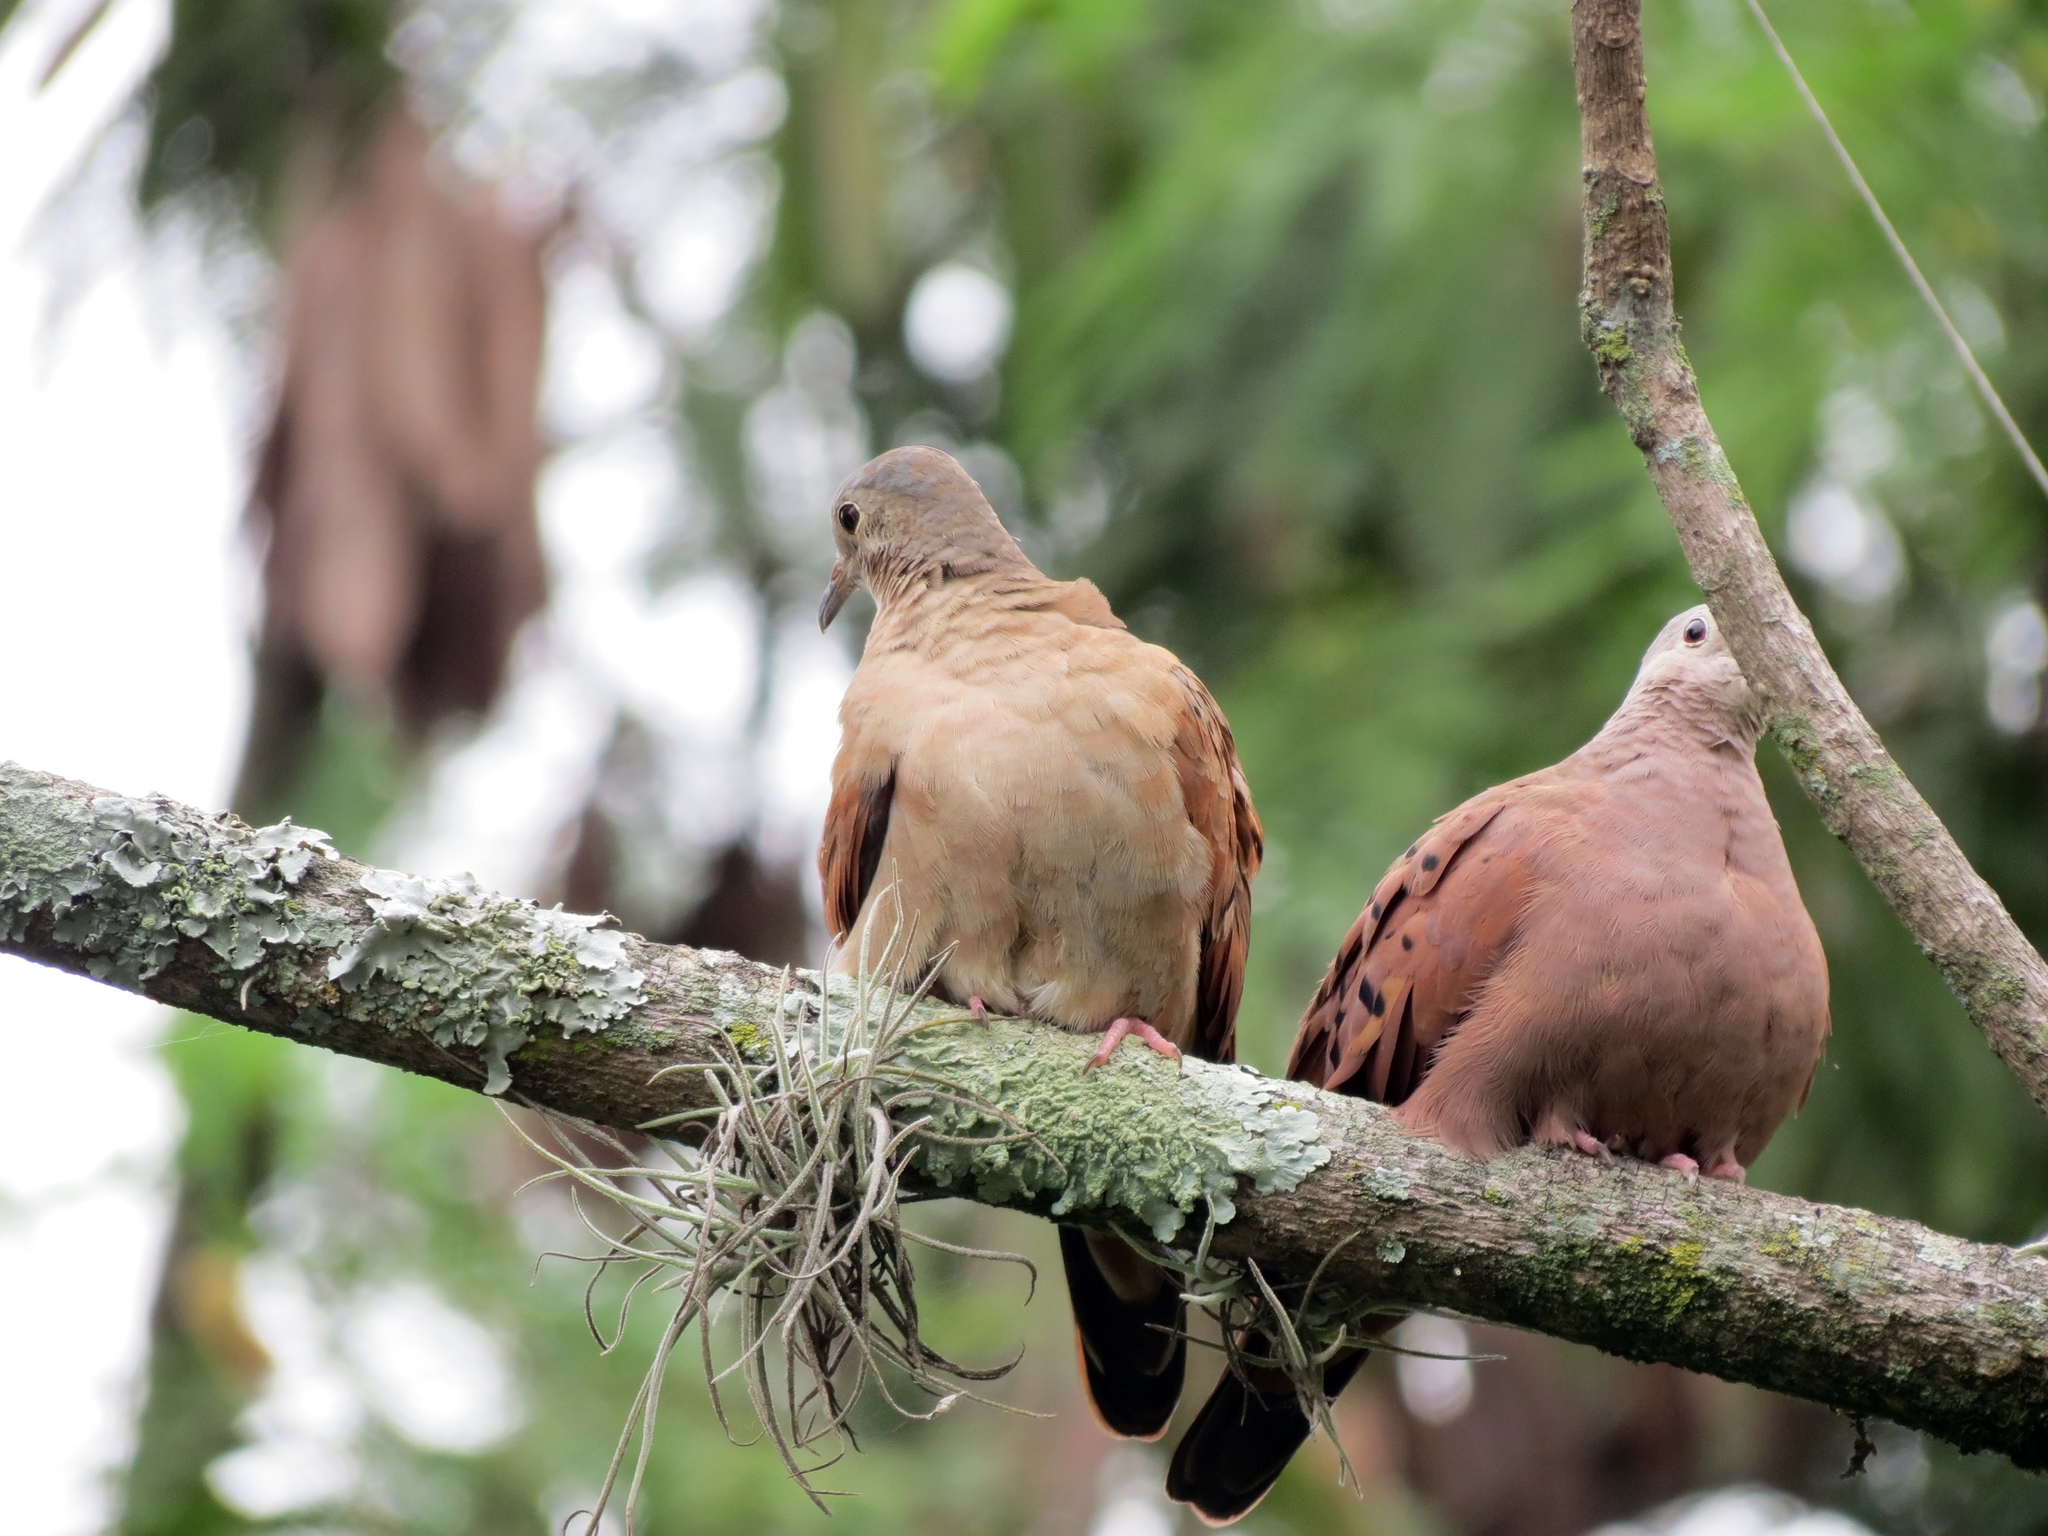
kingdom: Animalia
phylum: Chordata
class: Aves
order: Columbiformes
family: Columbidae
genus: Zenaida
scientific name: Zenaida auriculata
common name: Eared dove
